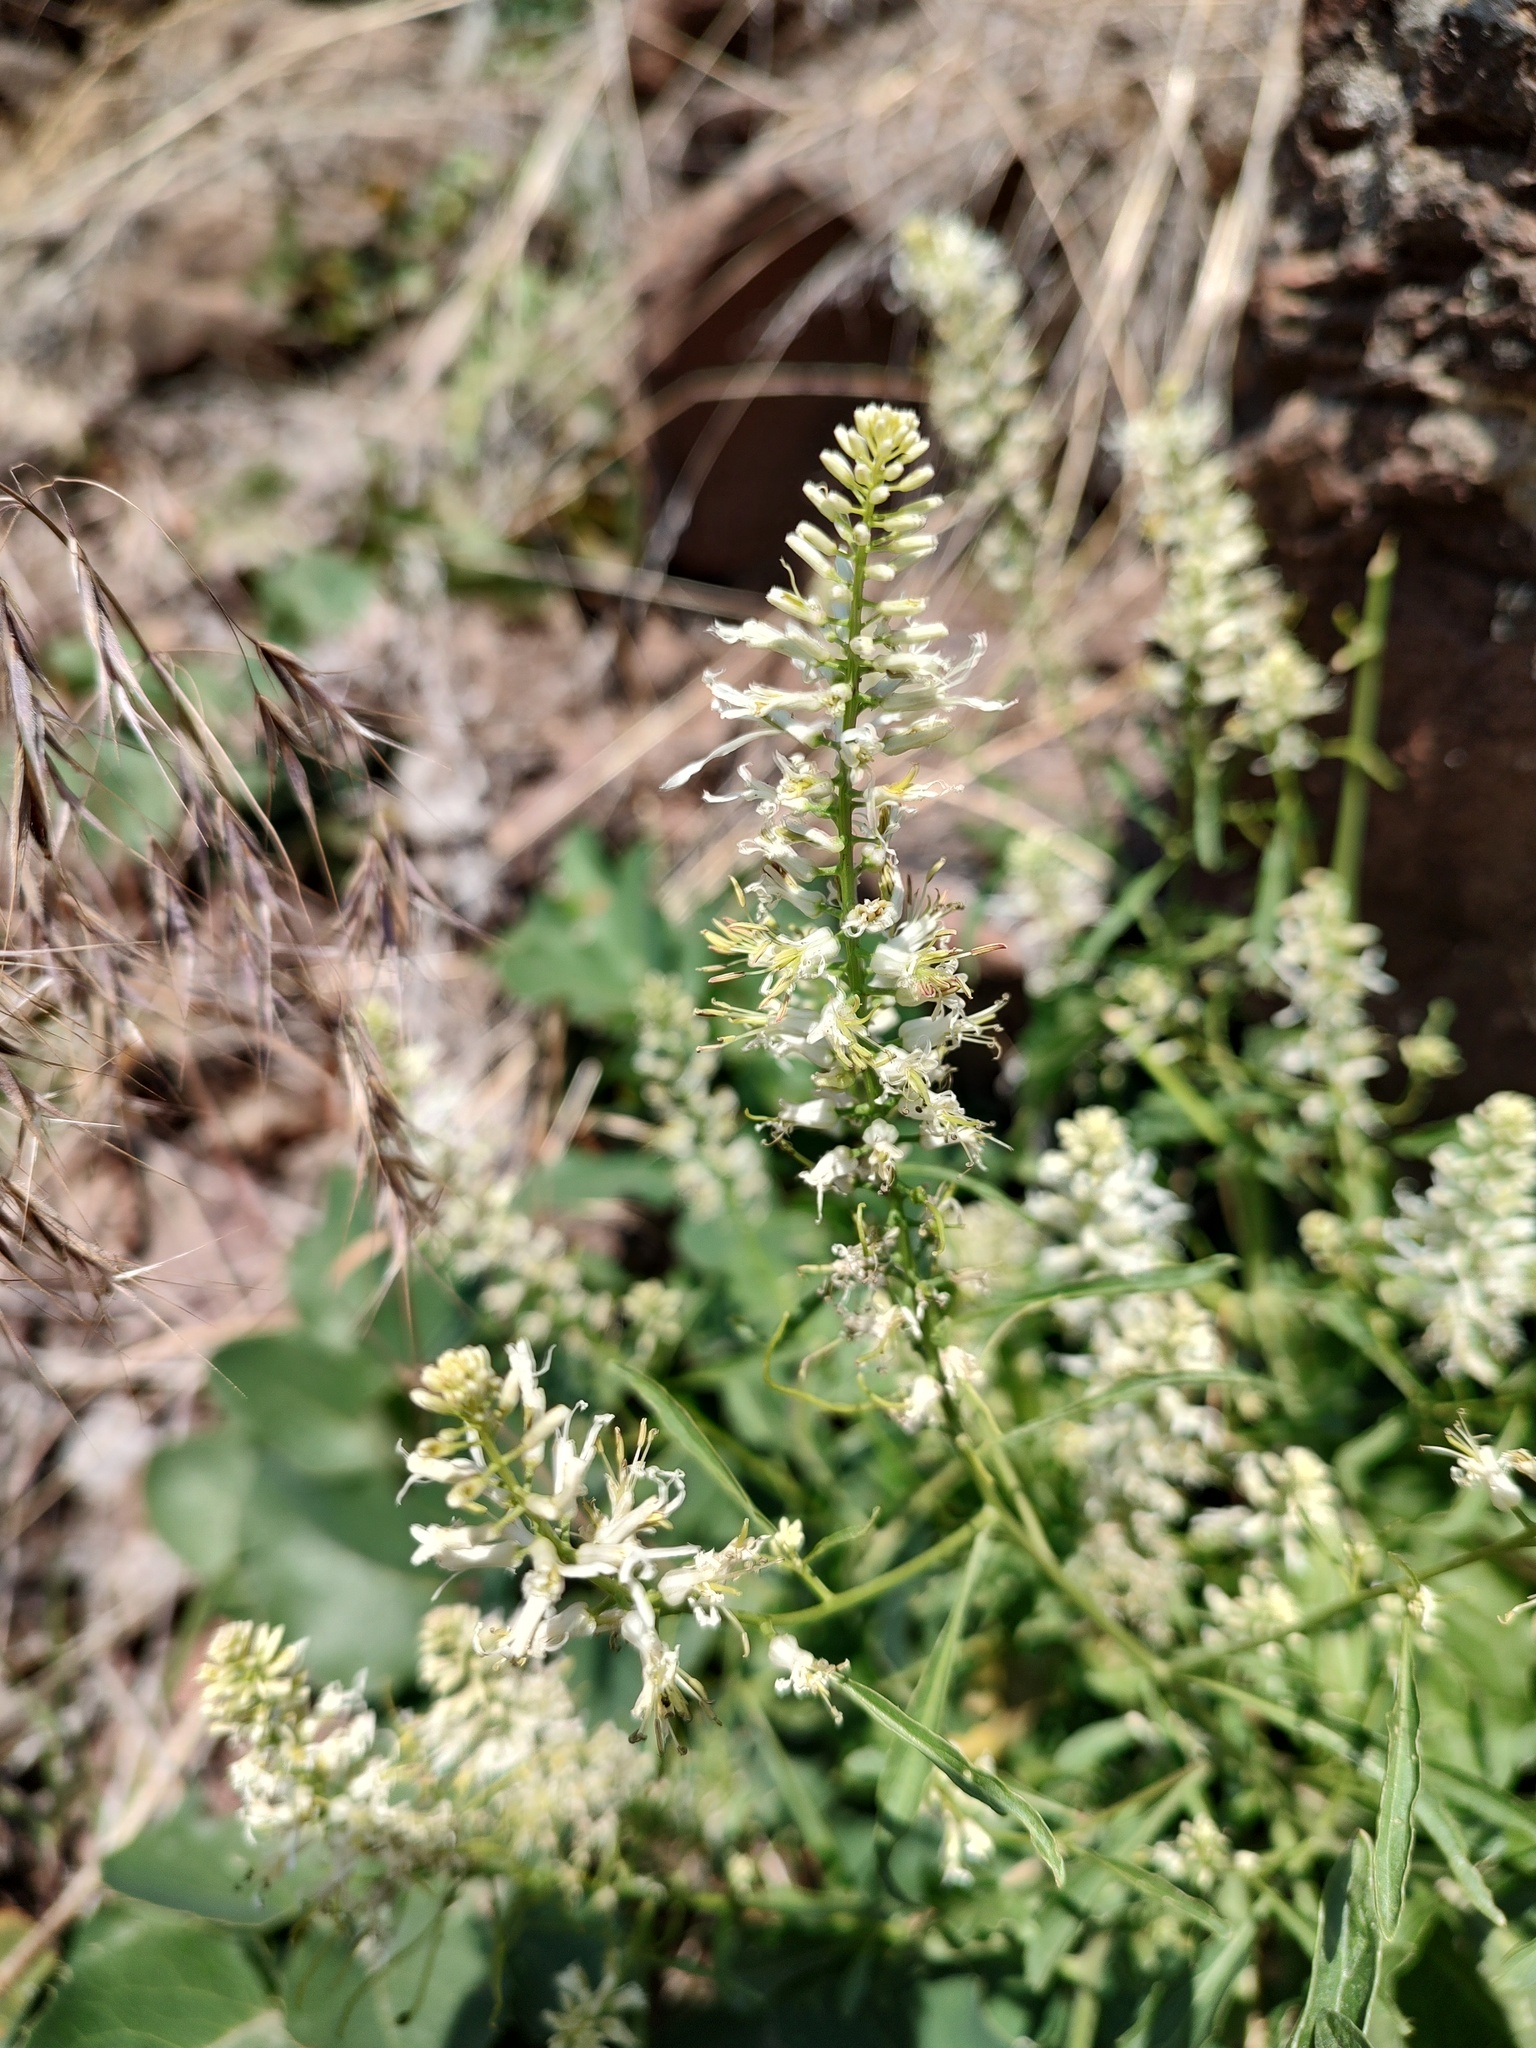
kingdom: Plantae
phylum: Tracheophyta
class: Magnoliopsida
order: Brassicales
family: Brassicaceae
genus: Thelypodium
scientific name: Thelypodium laciniatum
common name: Cut-leaved thelypody
